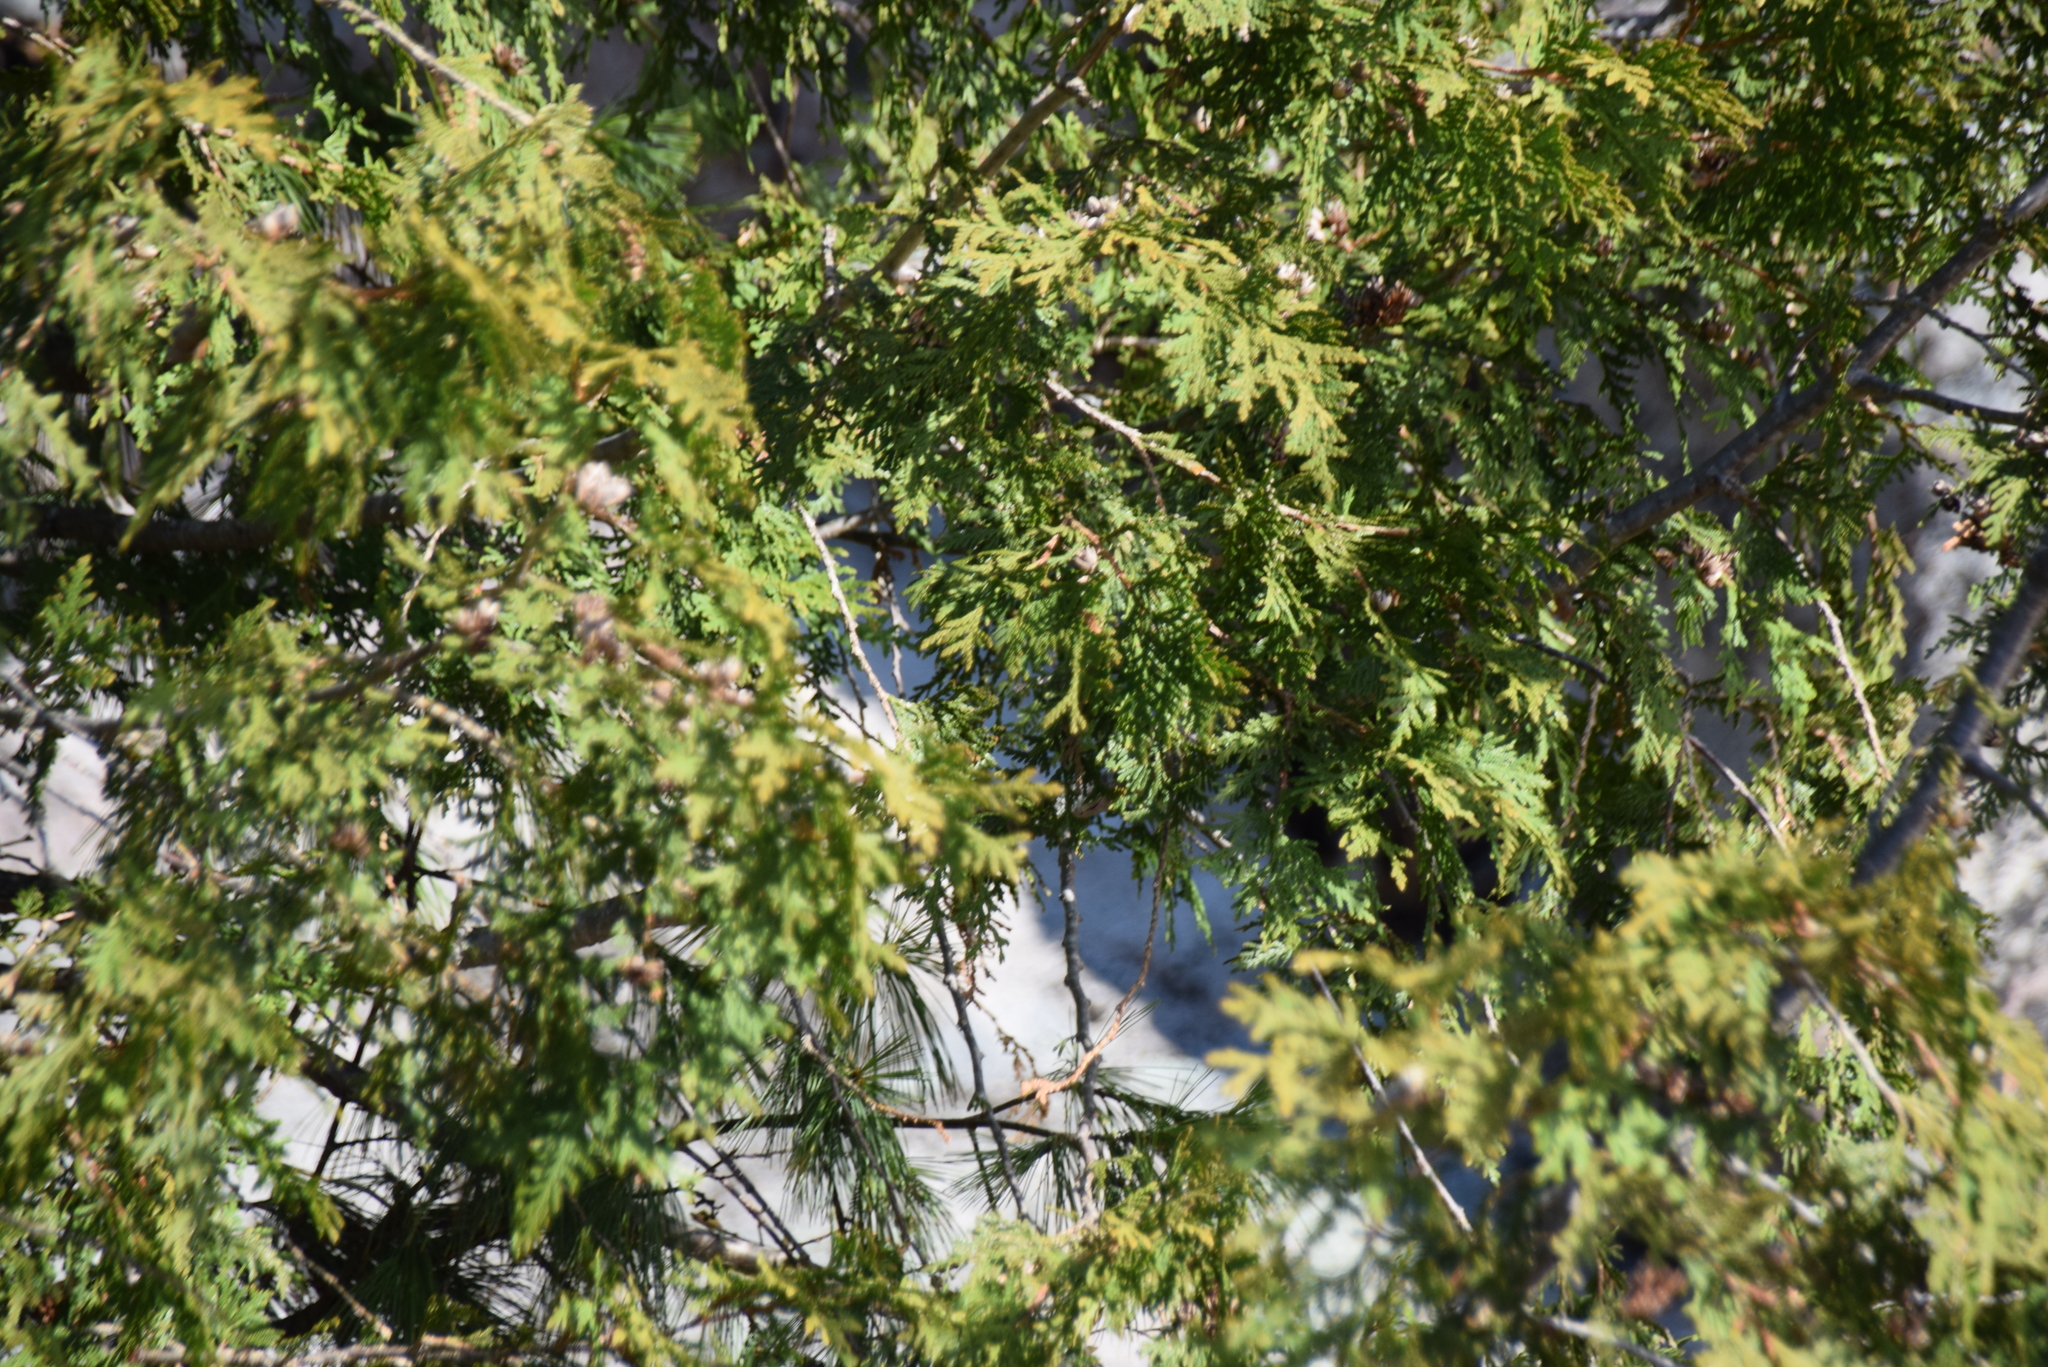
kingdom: Plantae
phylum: Tracheophyta
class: Pinopsida
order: Pinales
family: Cupressaceae
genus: Thuja
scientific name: Thuja occidentalis
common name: Northern white-cedar
